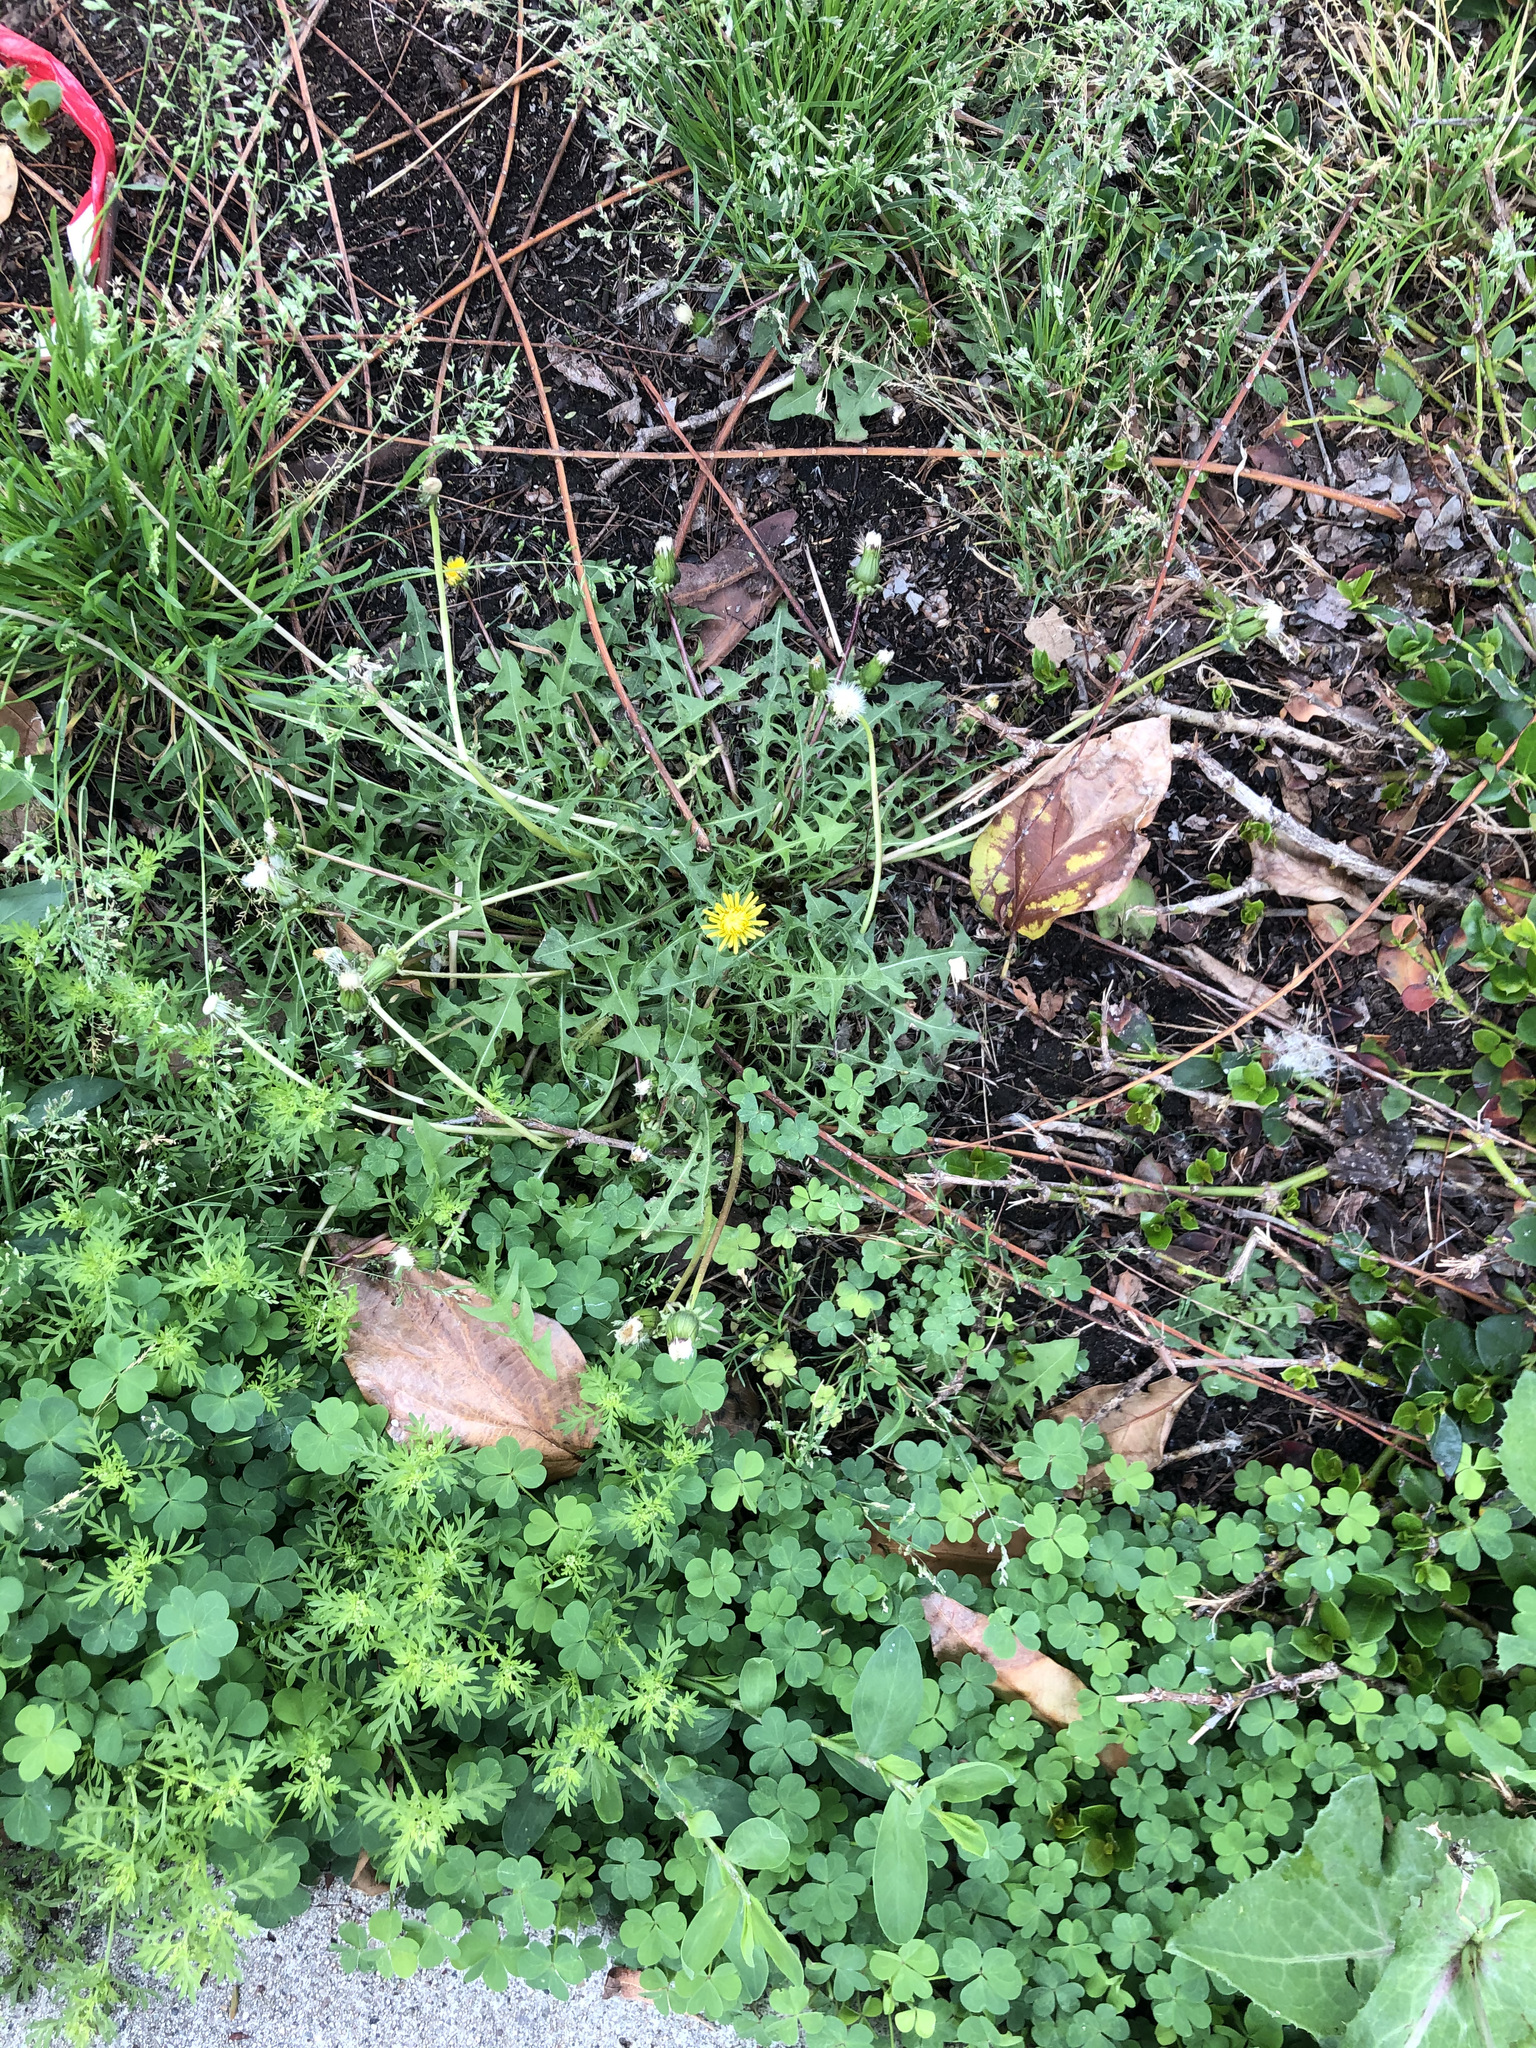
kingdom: Plantae
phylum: Tracheophyta
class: Magnoliopsida
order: Asterales
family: Asteraceae
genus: Cotula
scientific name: Cotula australis
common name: Australian waterbuttons
